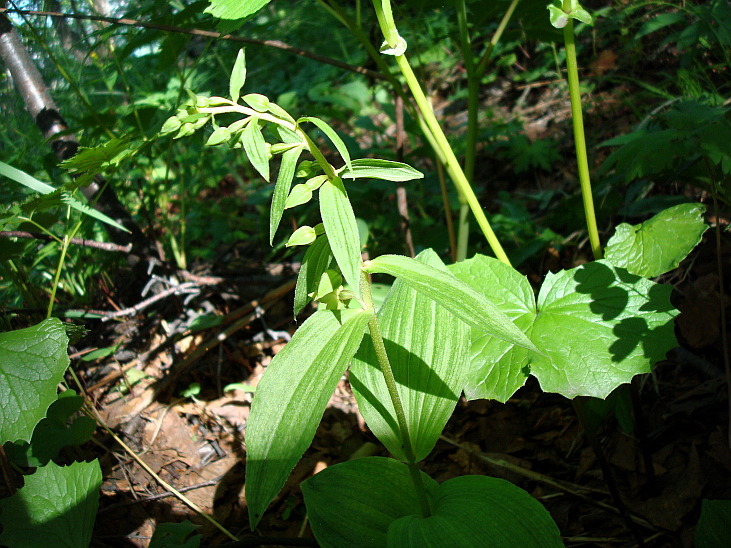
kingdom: Plantae
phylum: Tracheophyta
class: Liliopsida
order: Asparagales
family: Orchidaceae
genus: Epipactis
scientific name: Epipactis papillosa
